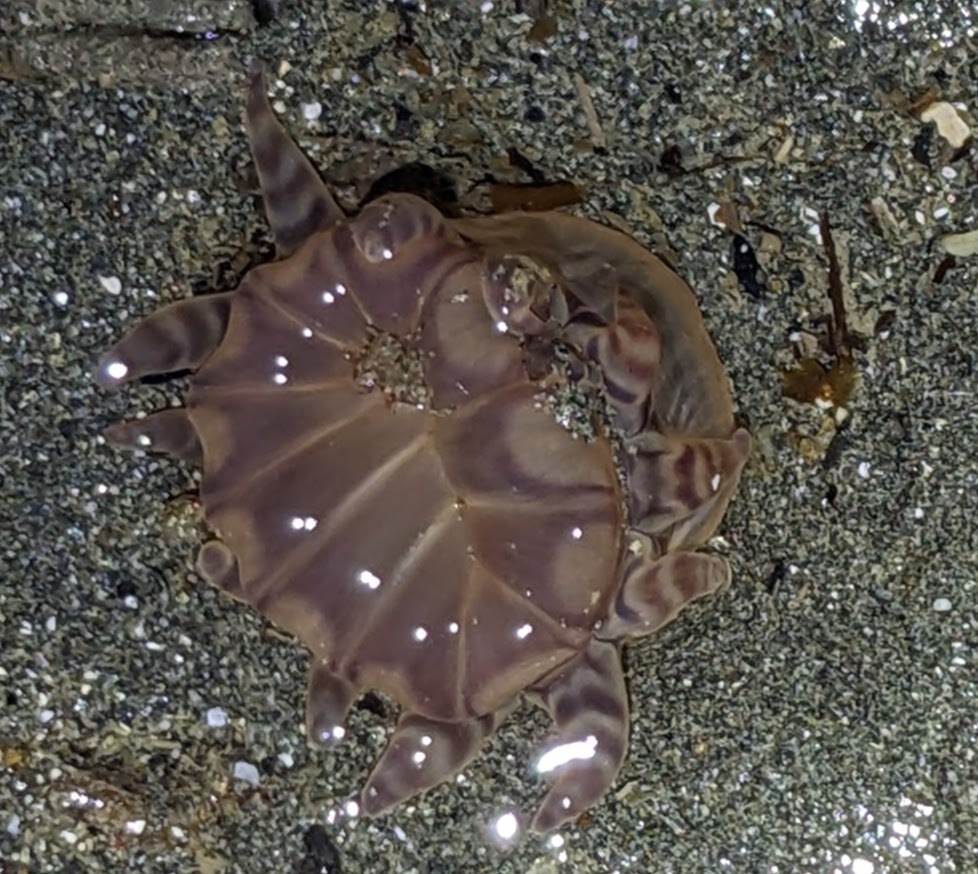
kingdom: Animalia
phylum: Cnidaria
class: Anthozoa
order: Actiniaria
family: Peachiidae
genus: Peachia
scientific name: Peachia quinquecapitata
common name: Twelve-tentacled parasitic anemone
